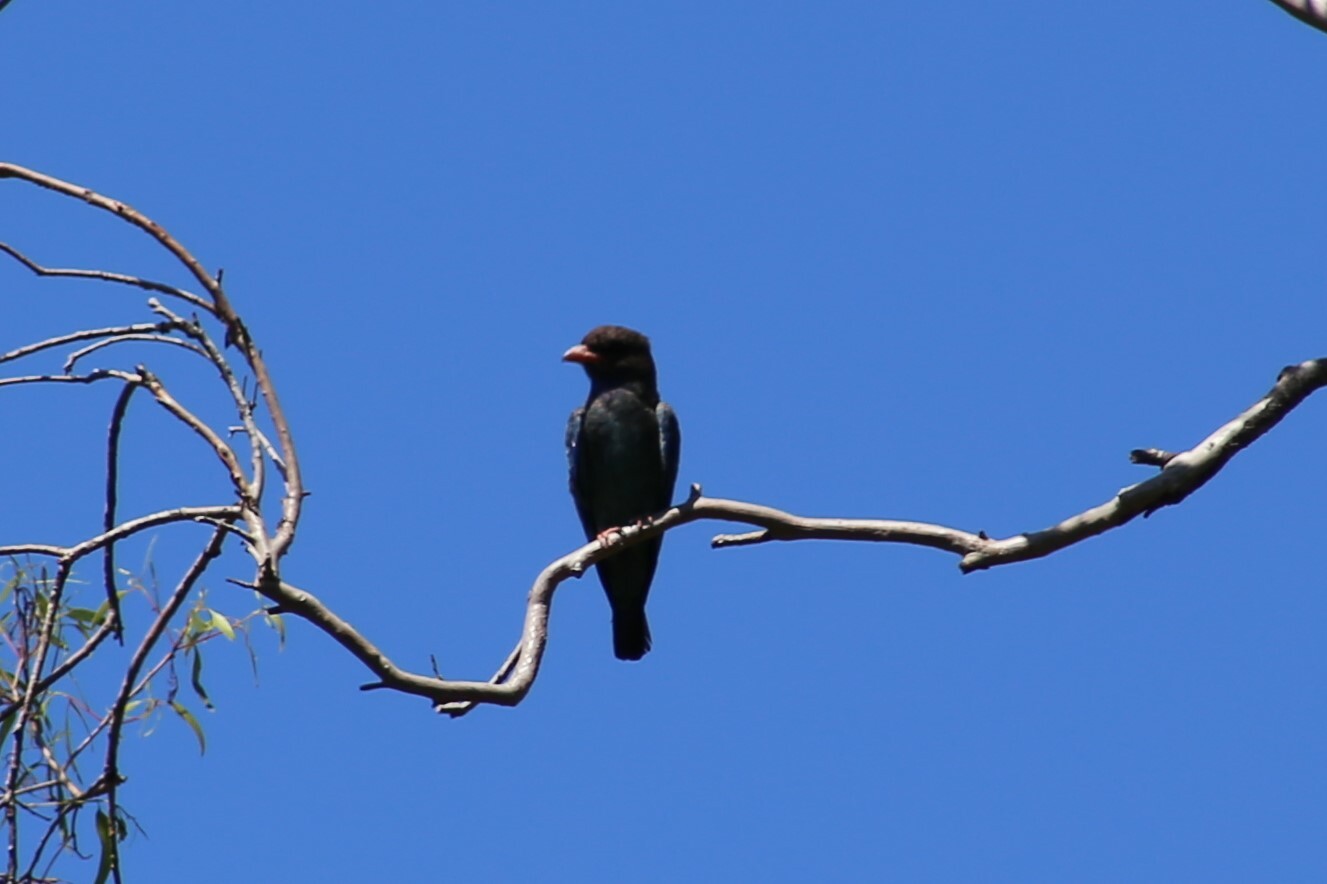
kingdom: Animalia
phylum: Chordata
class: Aves
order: Coraciiformes
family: Coraciidae
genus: Eurystomus
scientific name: Eurystomus orientalis
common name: Oriental dollarbird
